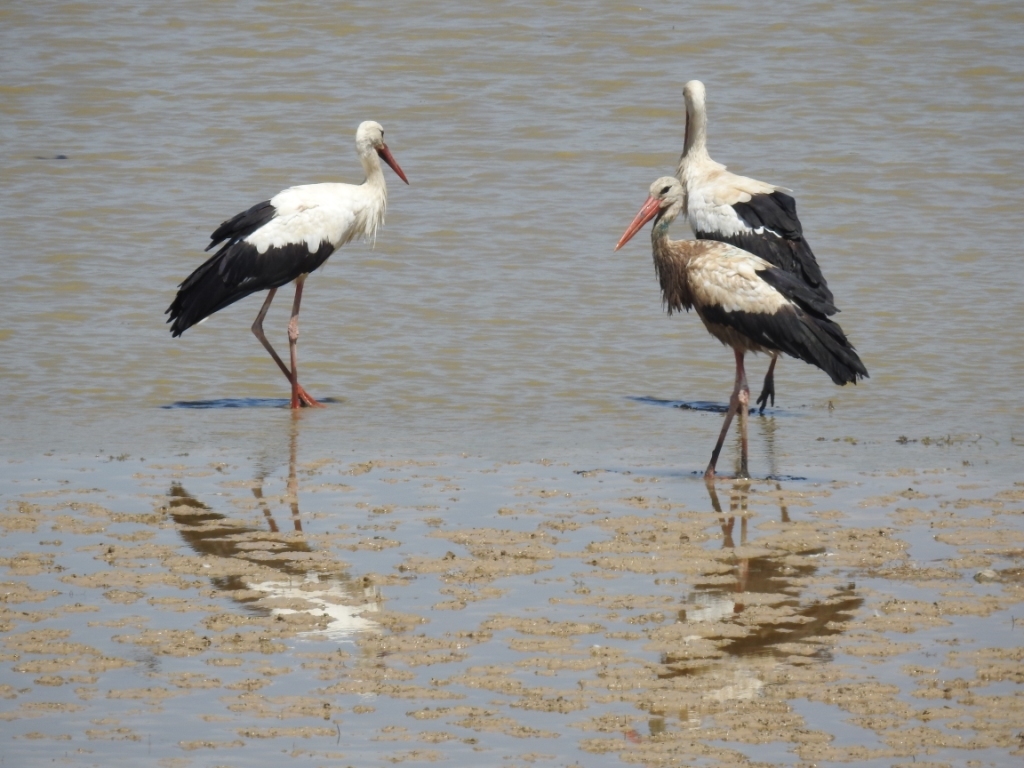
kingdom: Animalia
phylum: Chordata
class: Aves
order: Ciconiiformes
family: Ciconiidae
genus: Ciconia
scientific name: Ciconia ciconia
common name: White stork
